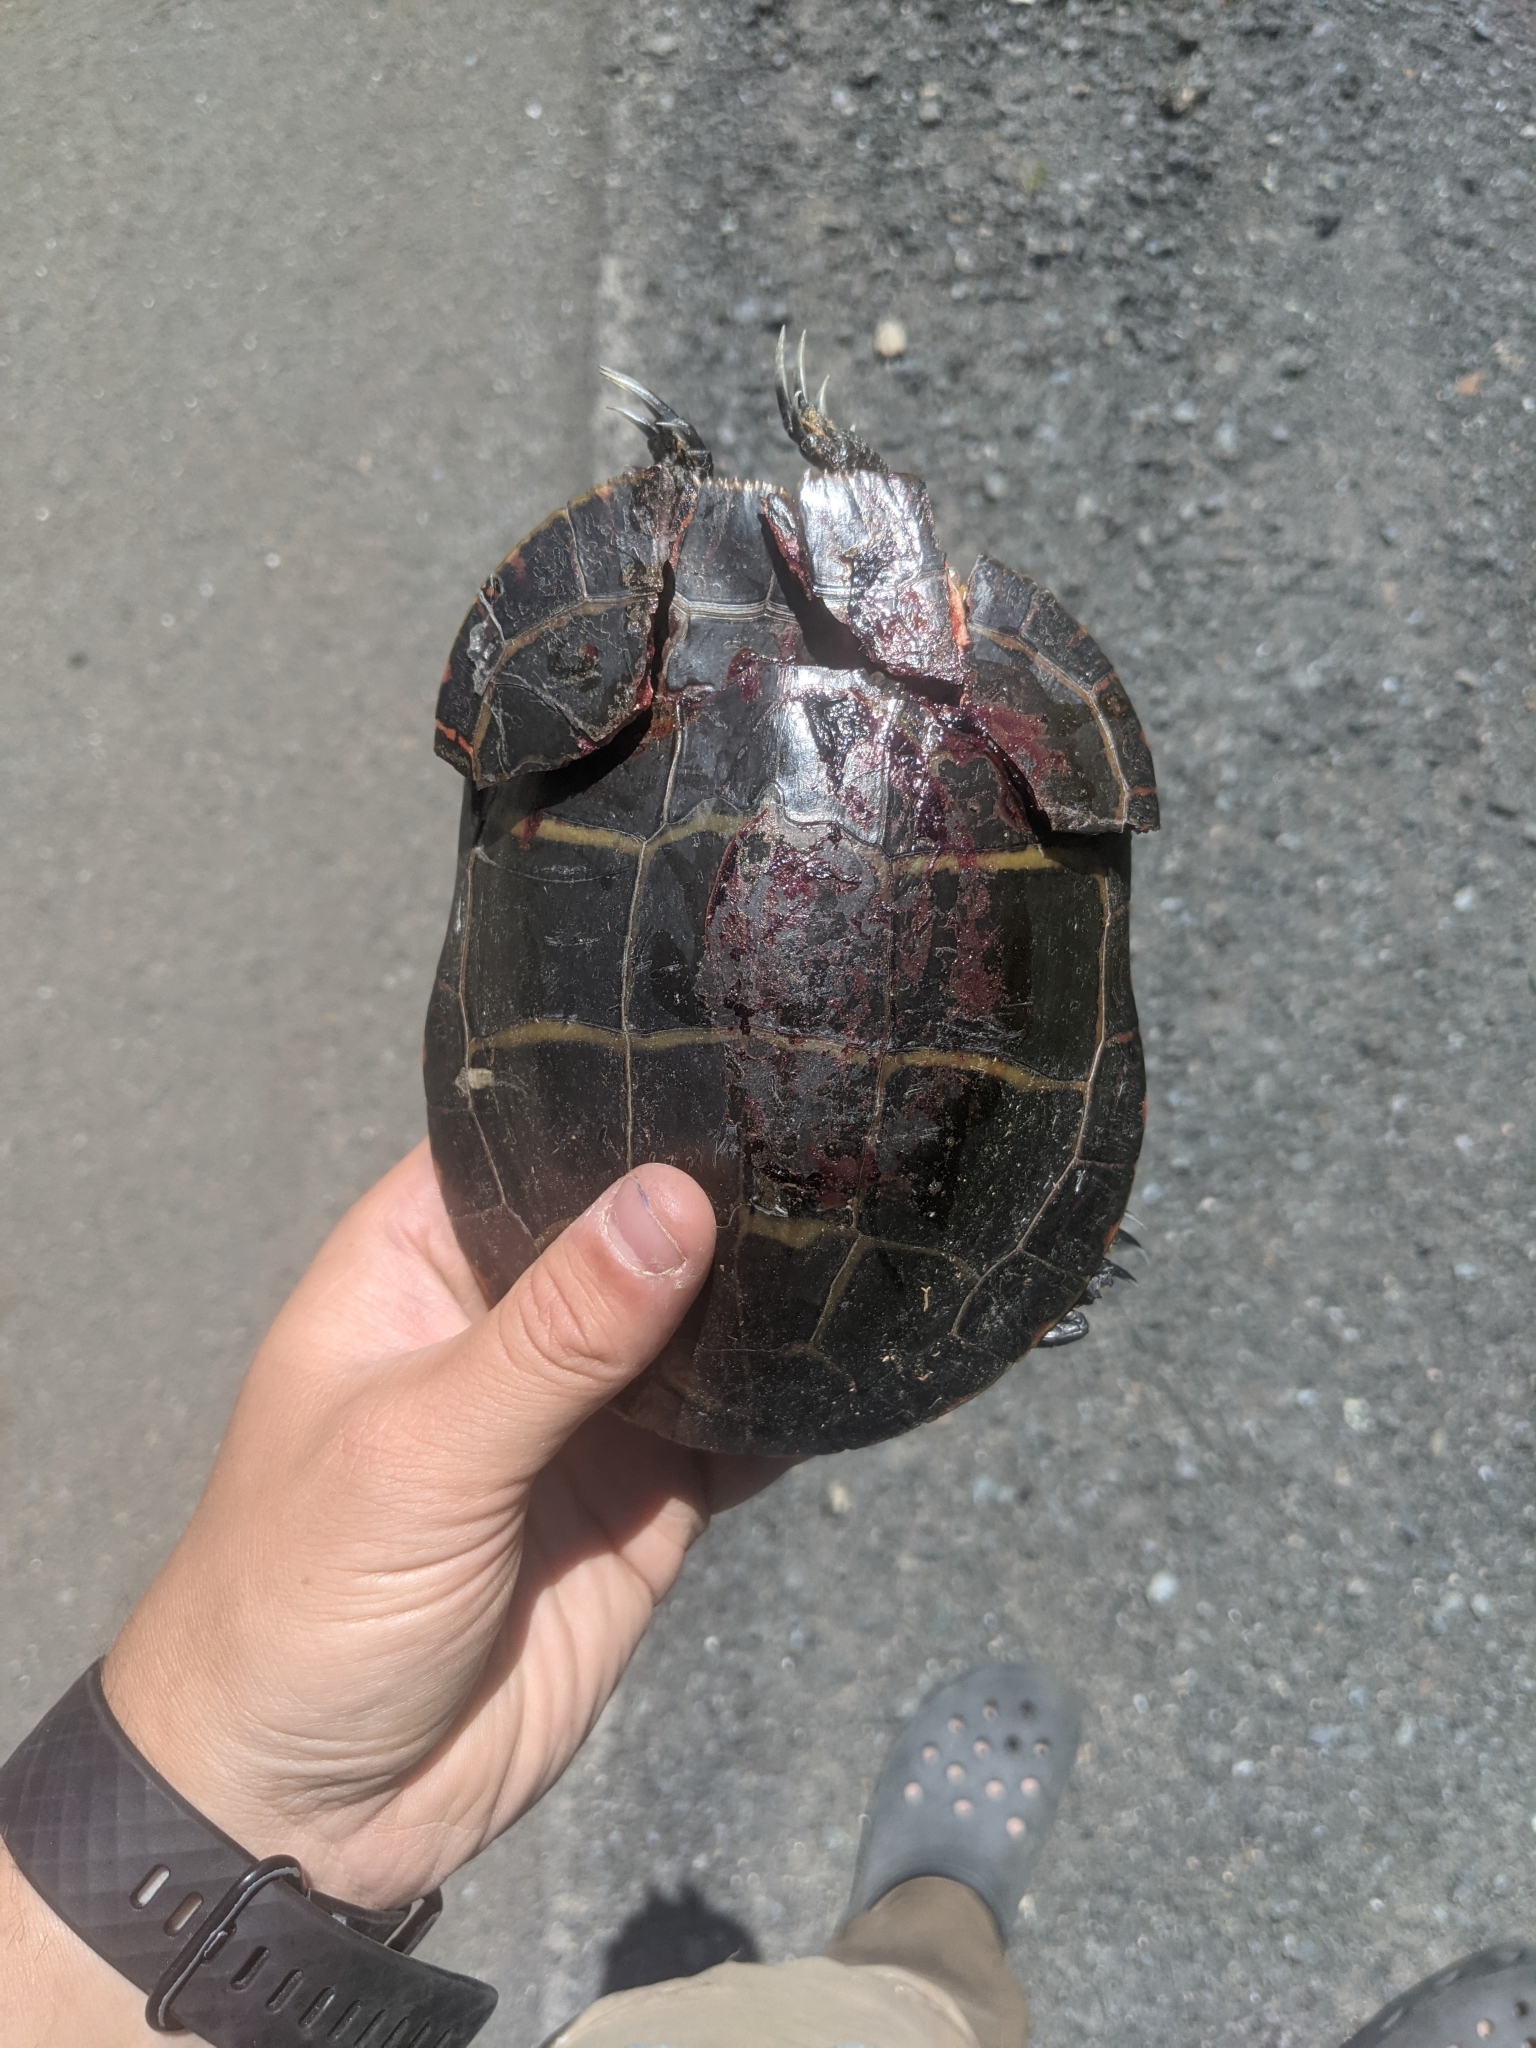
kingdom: Animalia
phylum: Chordata
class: Testudines
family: Emydidae
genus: Chrysemys
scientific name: Chrysemys picta
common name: Painted turtle
